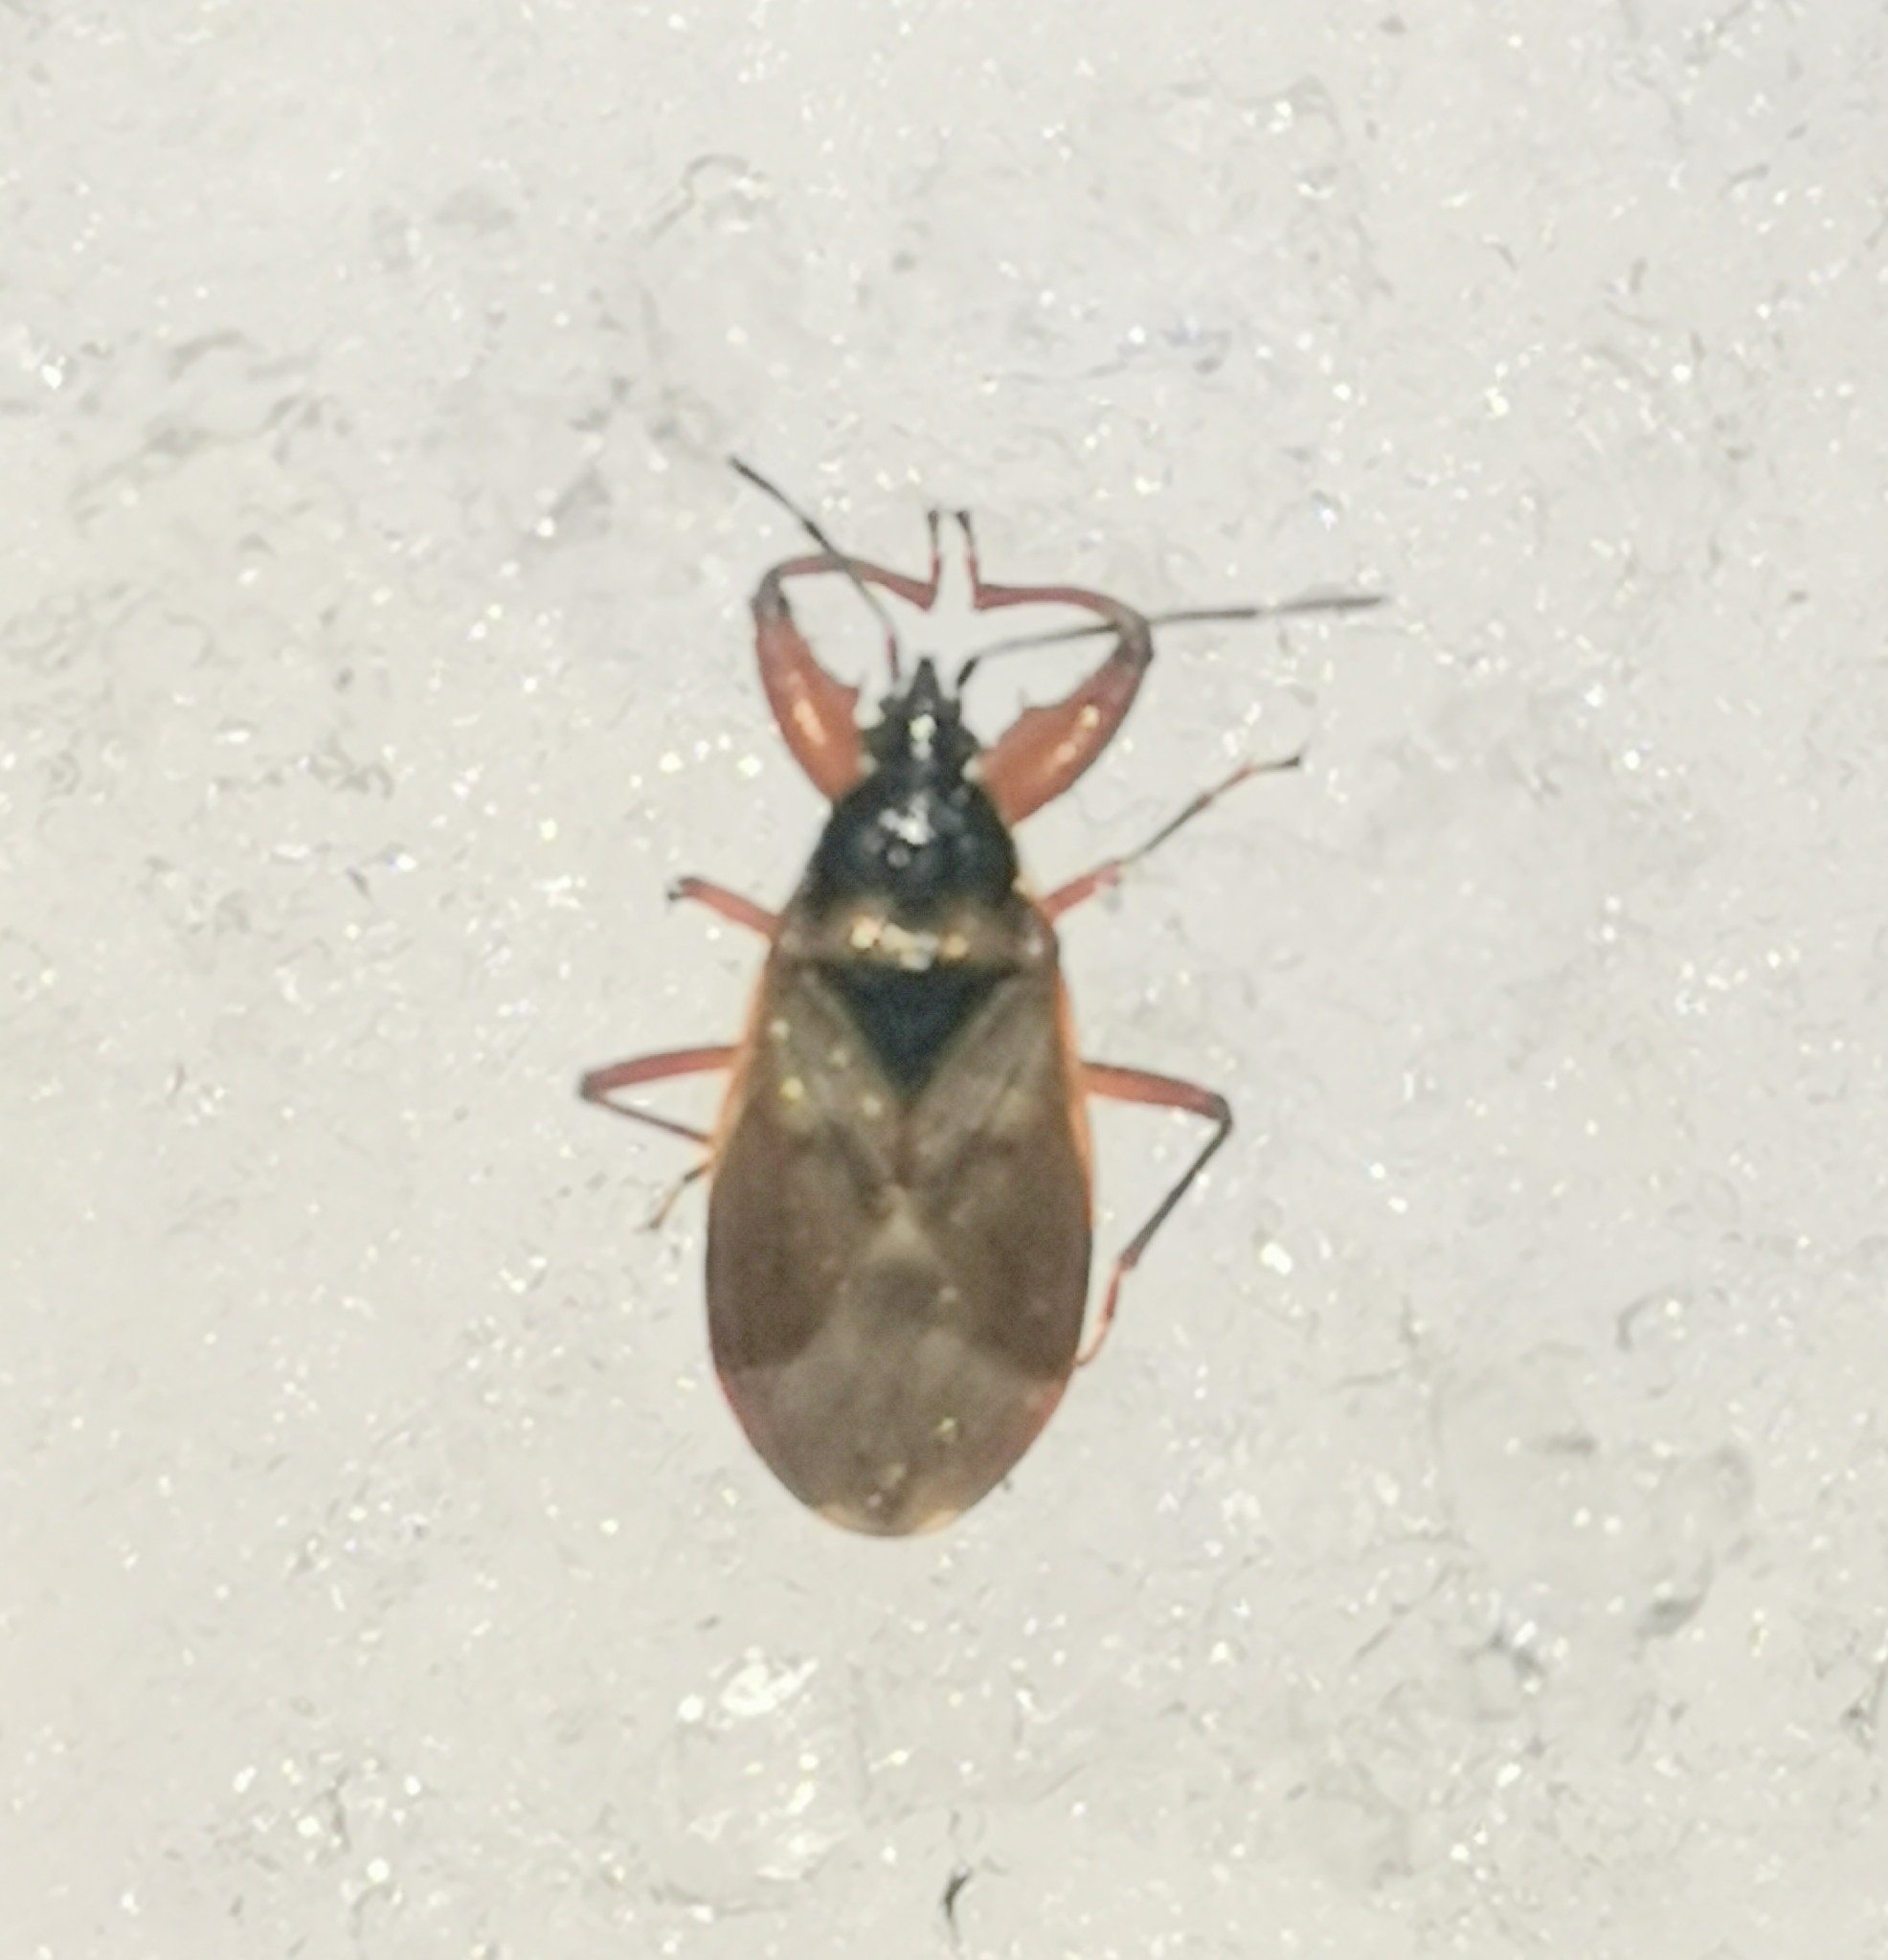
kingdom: Animalia
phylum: Arthropoda
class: Insecta
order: Hemiptera
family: Rhyparochromidae
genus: Gastrodes
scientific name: Gastrodes abietum
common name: Spruce cone bug
